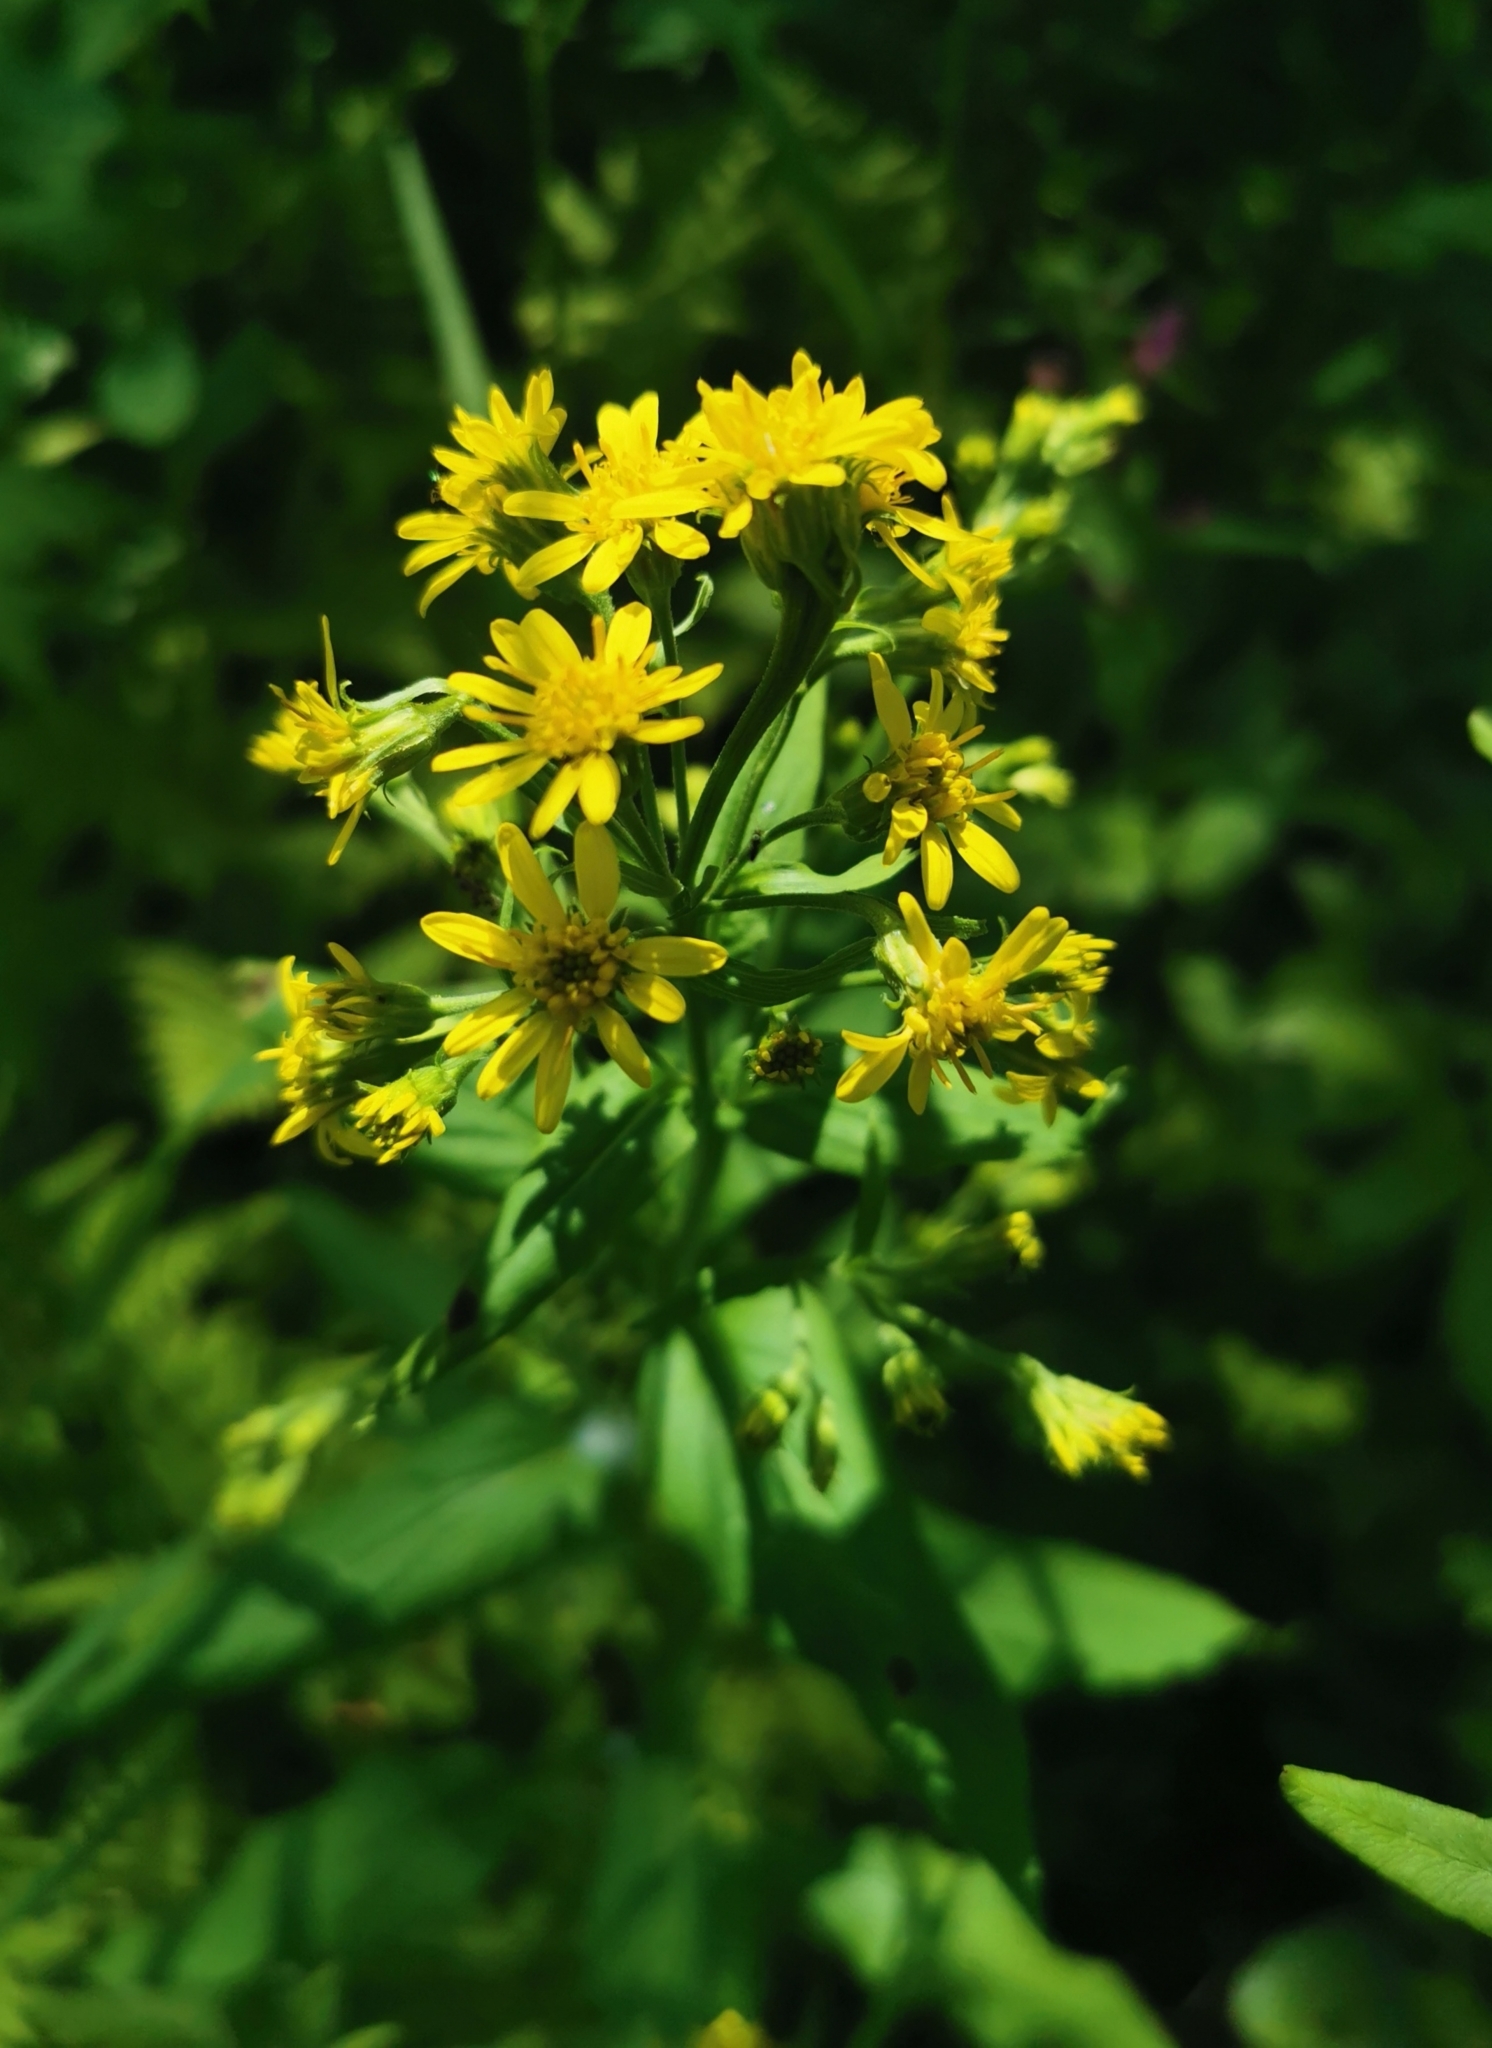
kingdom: Plantae
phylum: Tracheophyta
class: Magnoliopsida
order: Asterales
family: Asteraceae
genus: Solidago
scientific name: Solidago cuprea
